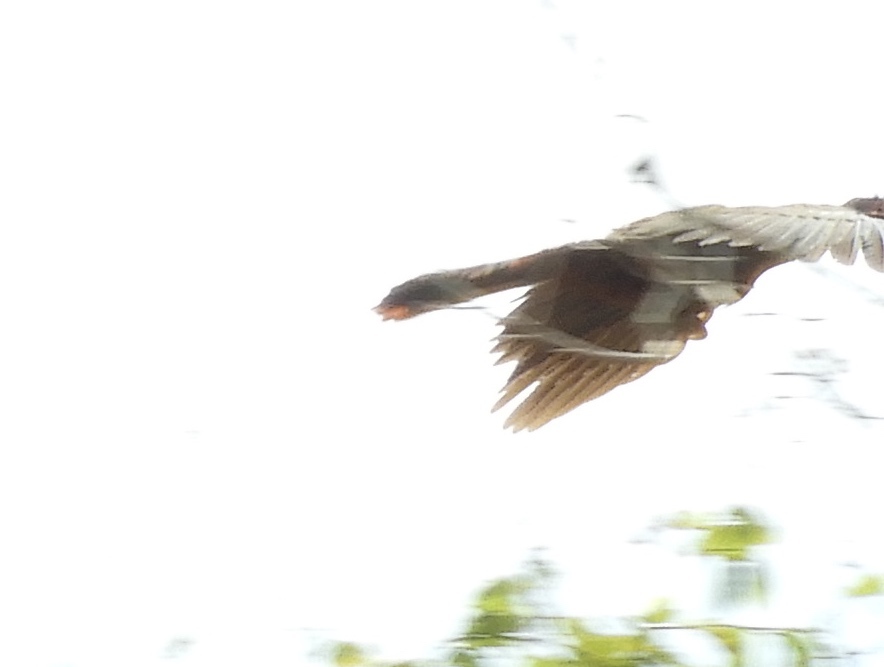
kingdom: Animalia
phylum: Chordata
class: Aves
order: Galliformes
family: Cracidae
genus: Ortalis
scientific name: Ortalis wagleri
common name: Rufous-bellied chachalaca
